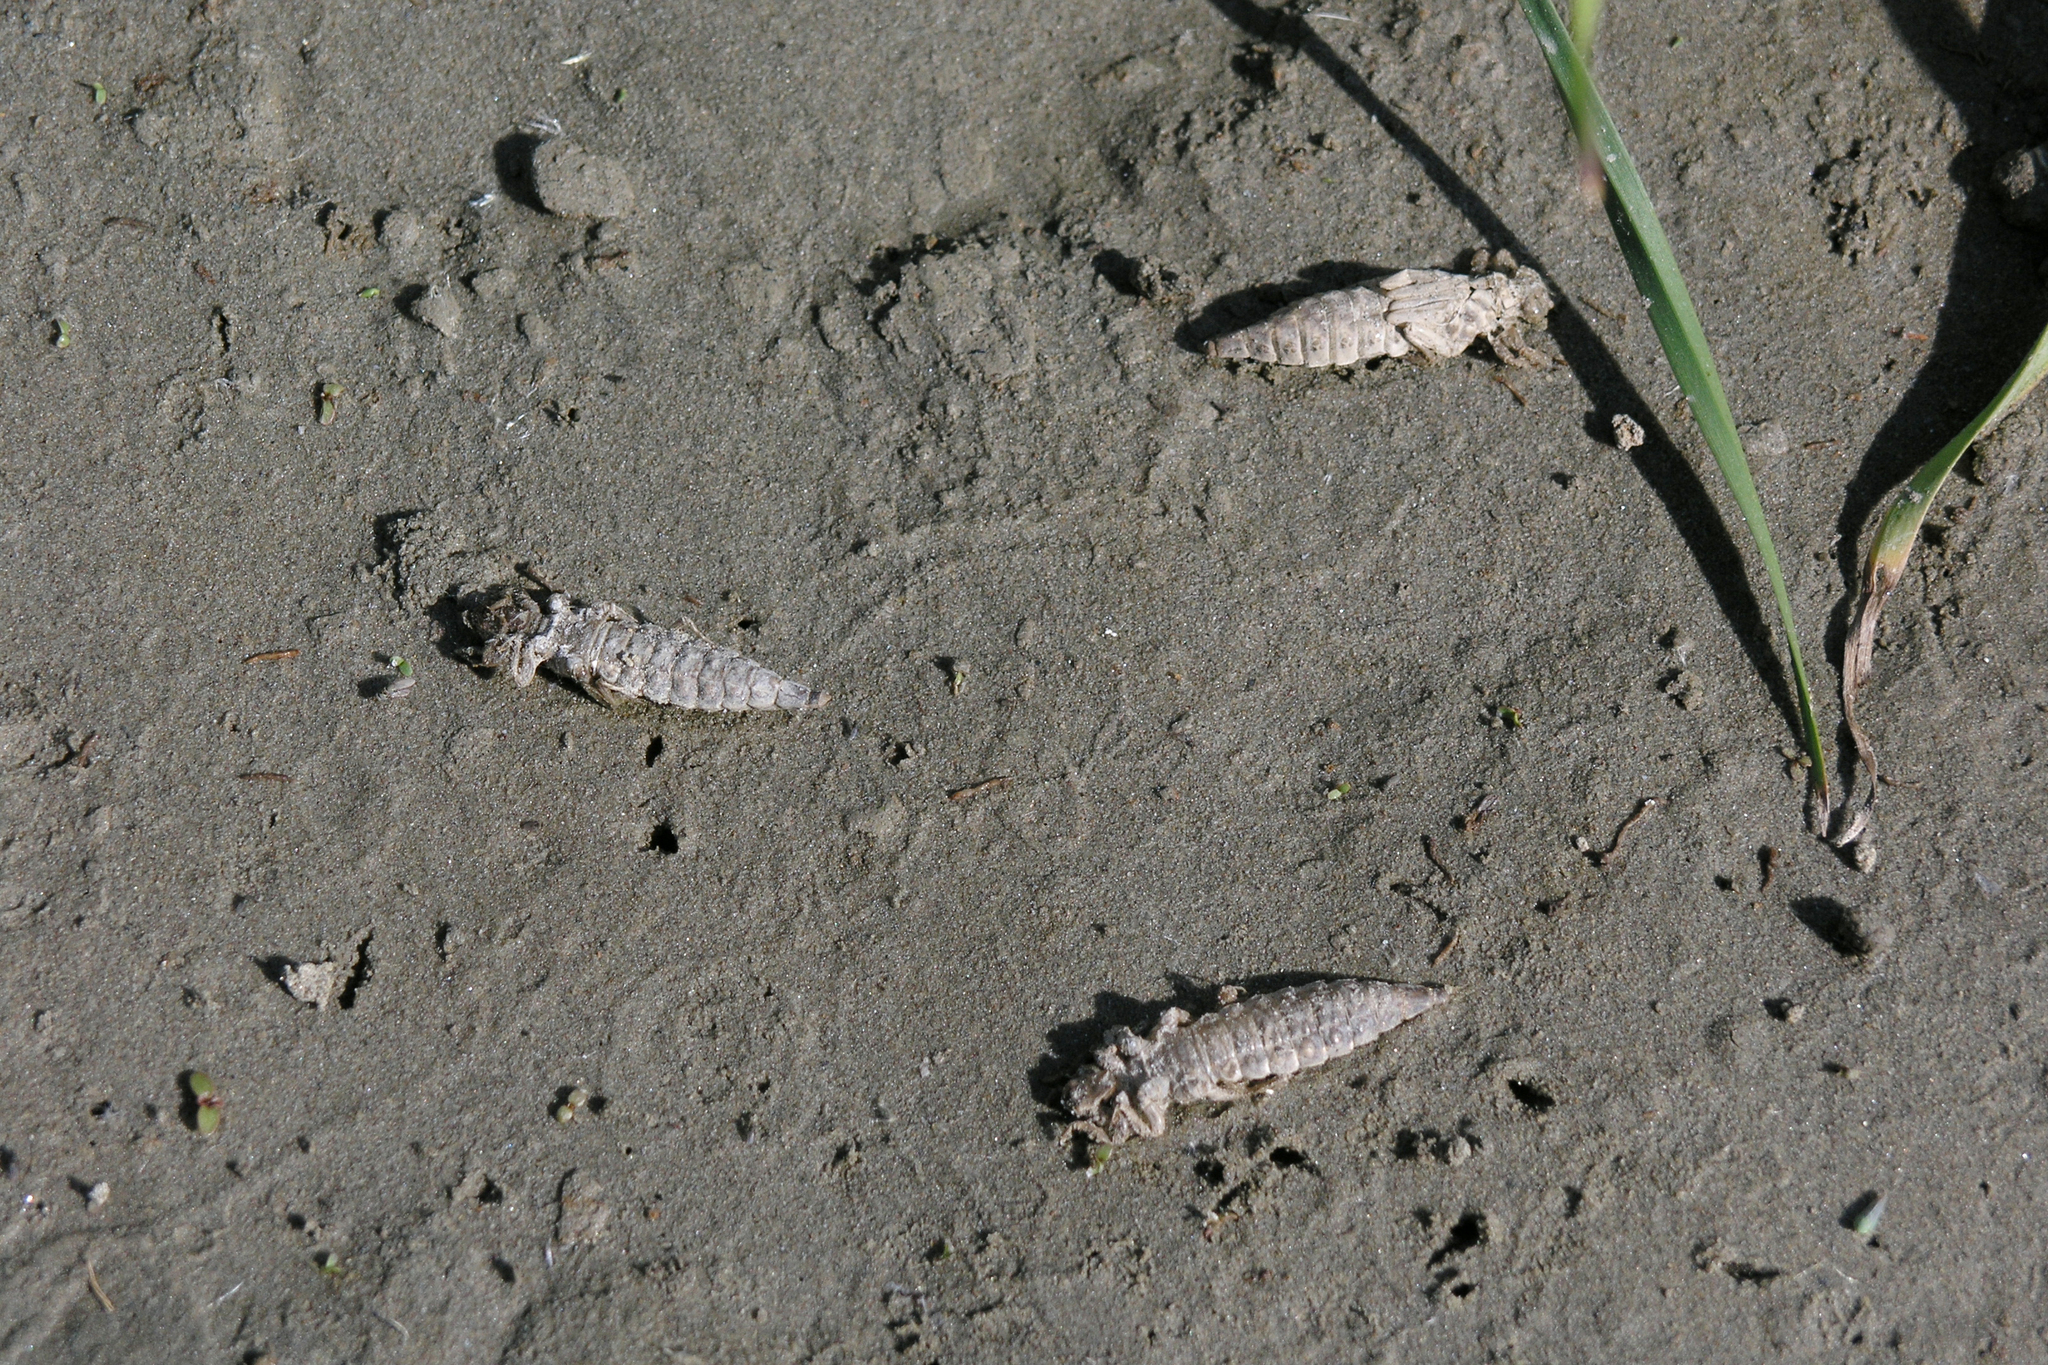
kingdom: Animalia
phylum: Arthropoda
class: Insecta
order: Odonata
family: Gomphidae
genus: Stylurus
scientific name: Stylurus flavipes
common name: River clubtail
